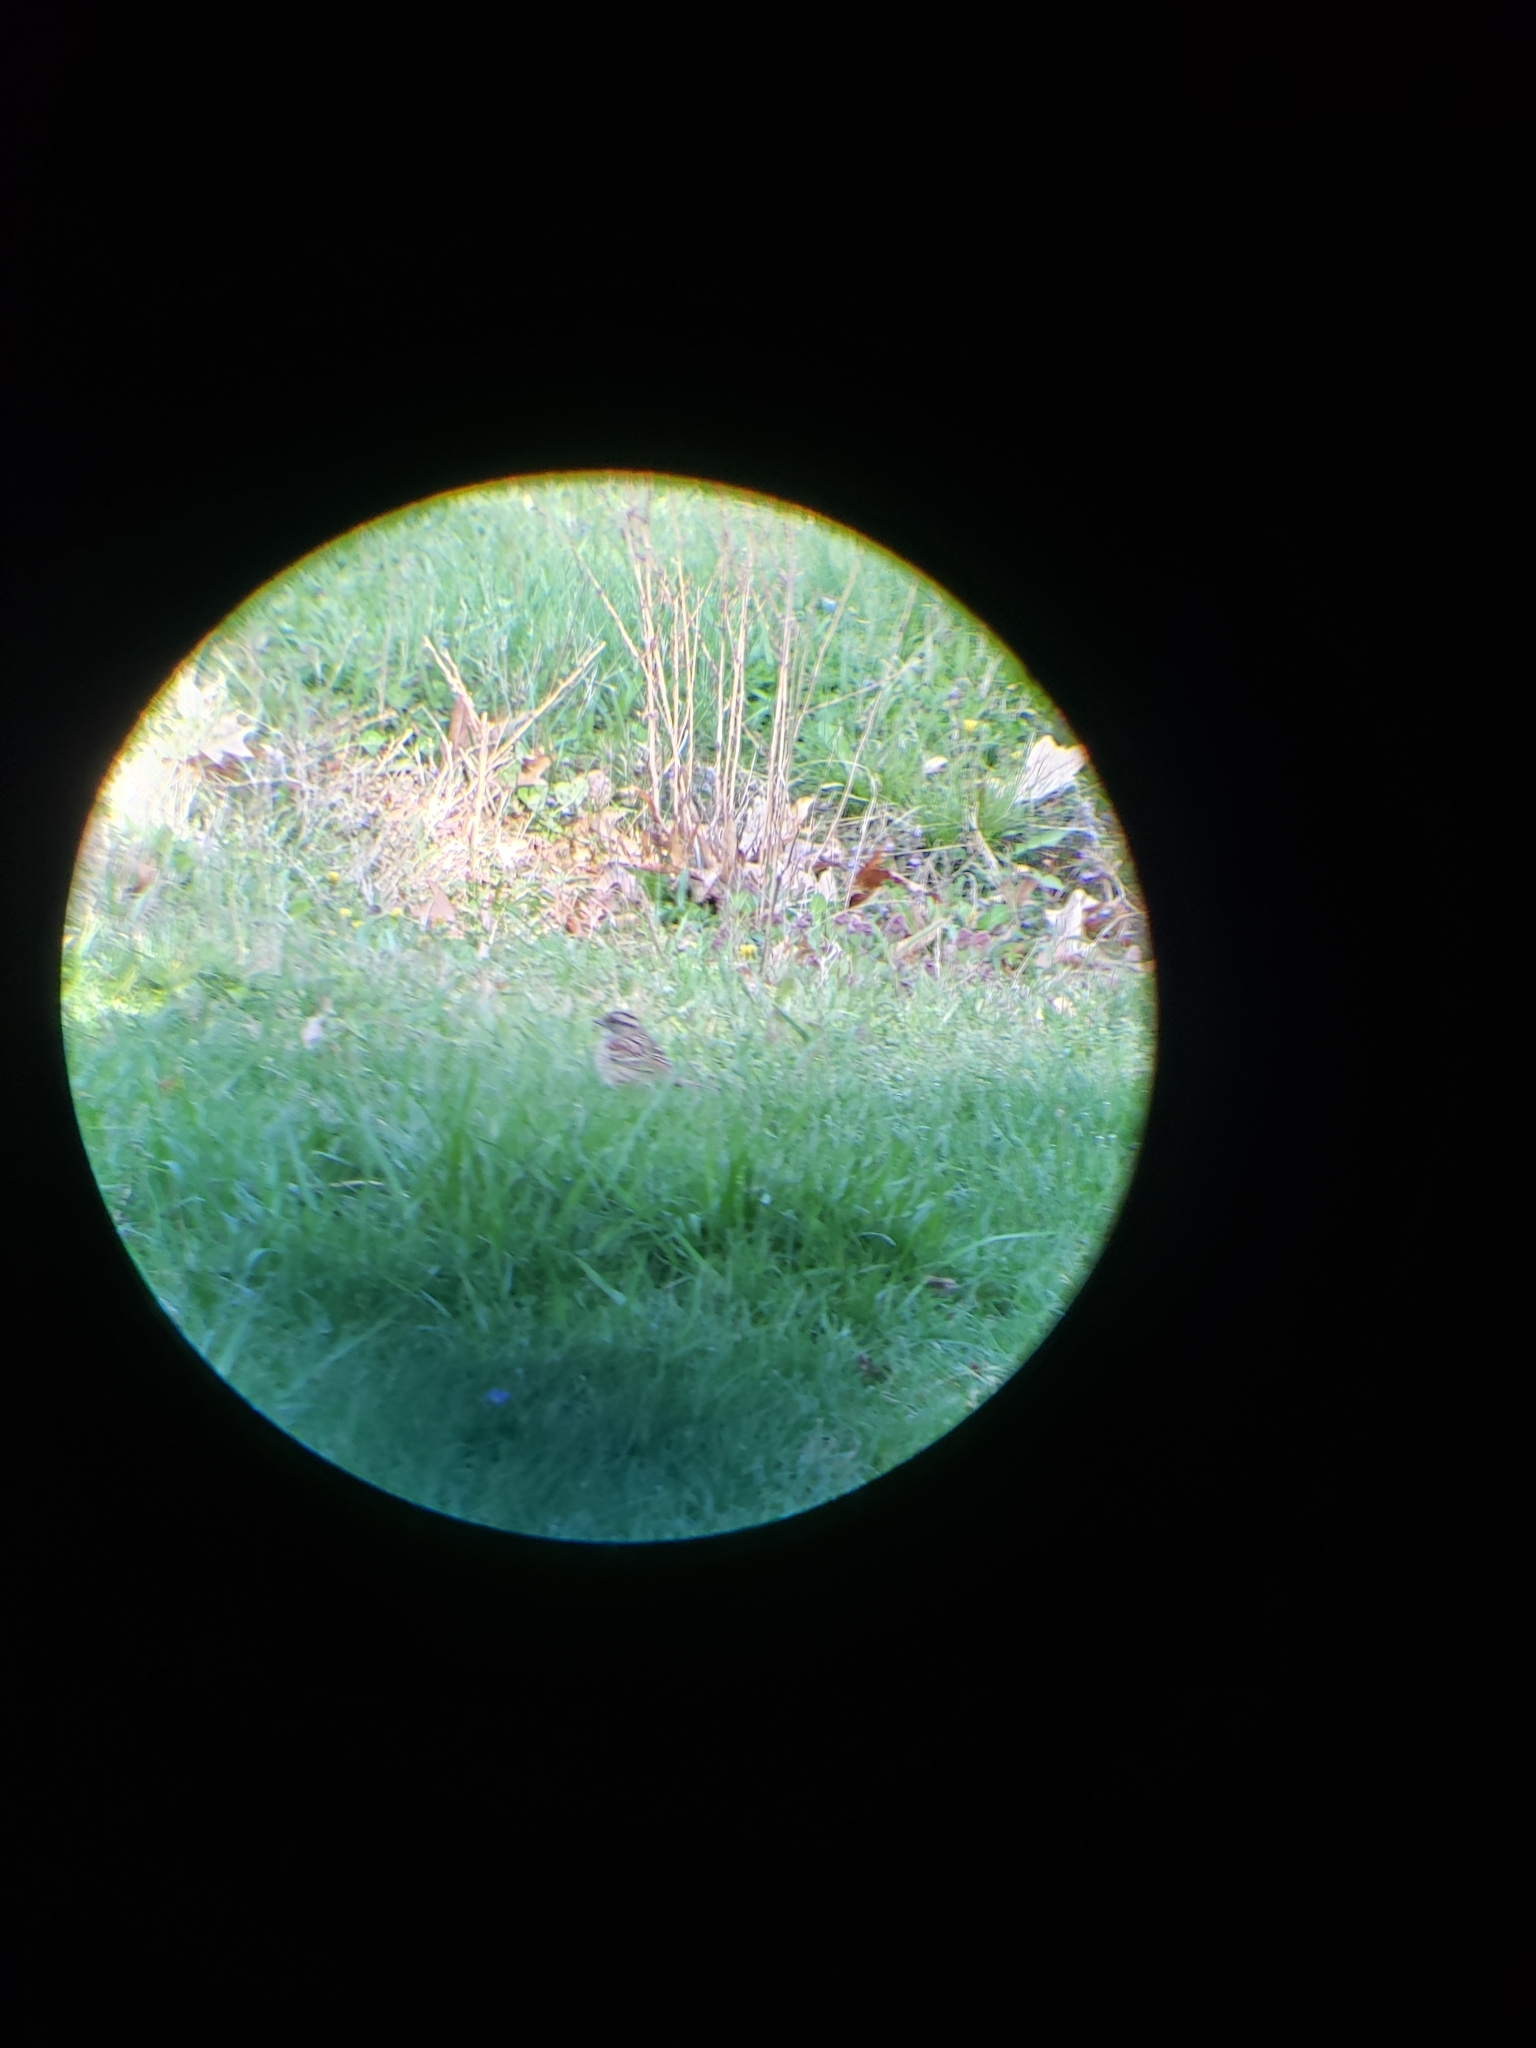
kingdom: Animalia
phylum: Chordata
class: Aves
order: Passeriformes
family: Passerellidae
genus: Zonotrichia
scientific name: Zonotrichia albicollis
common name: White-throated sparrow
